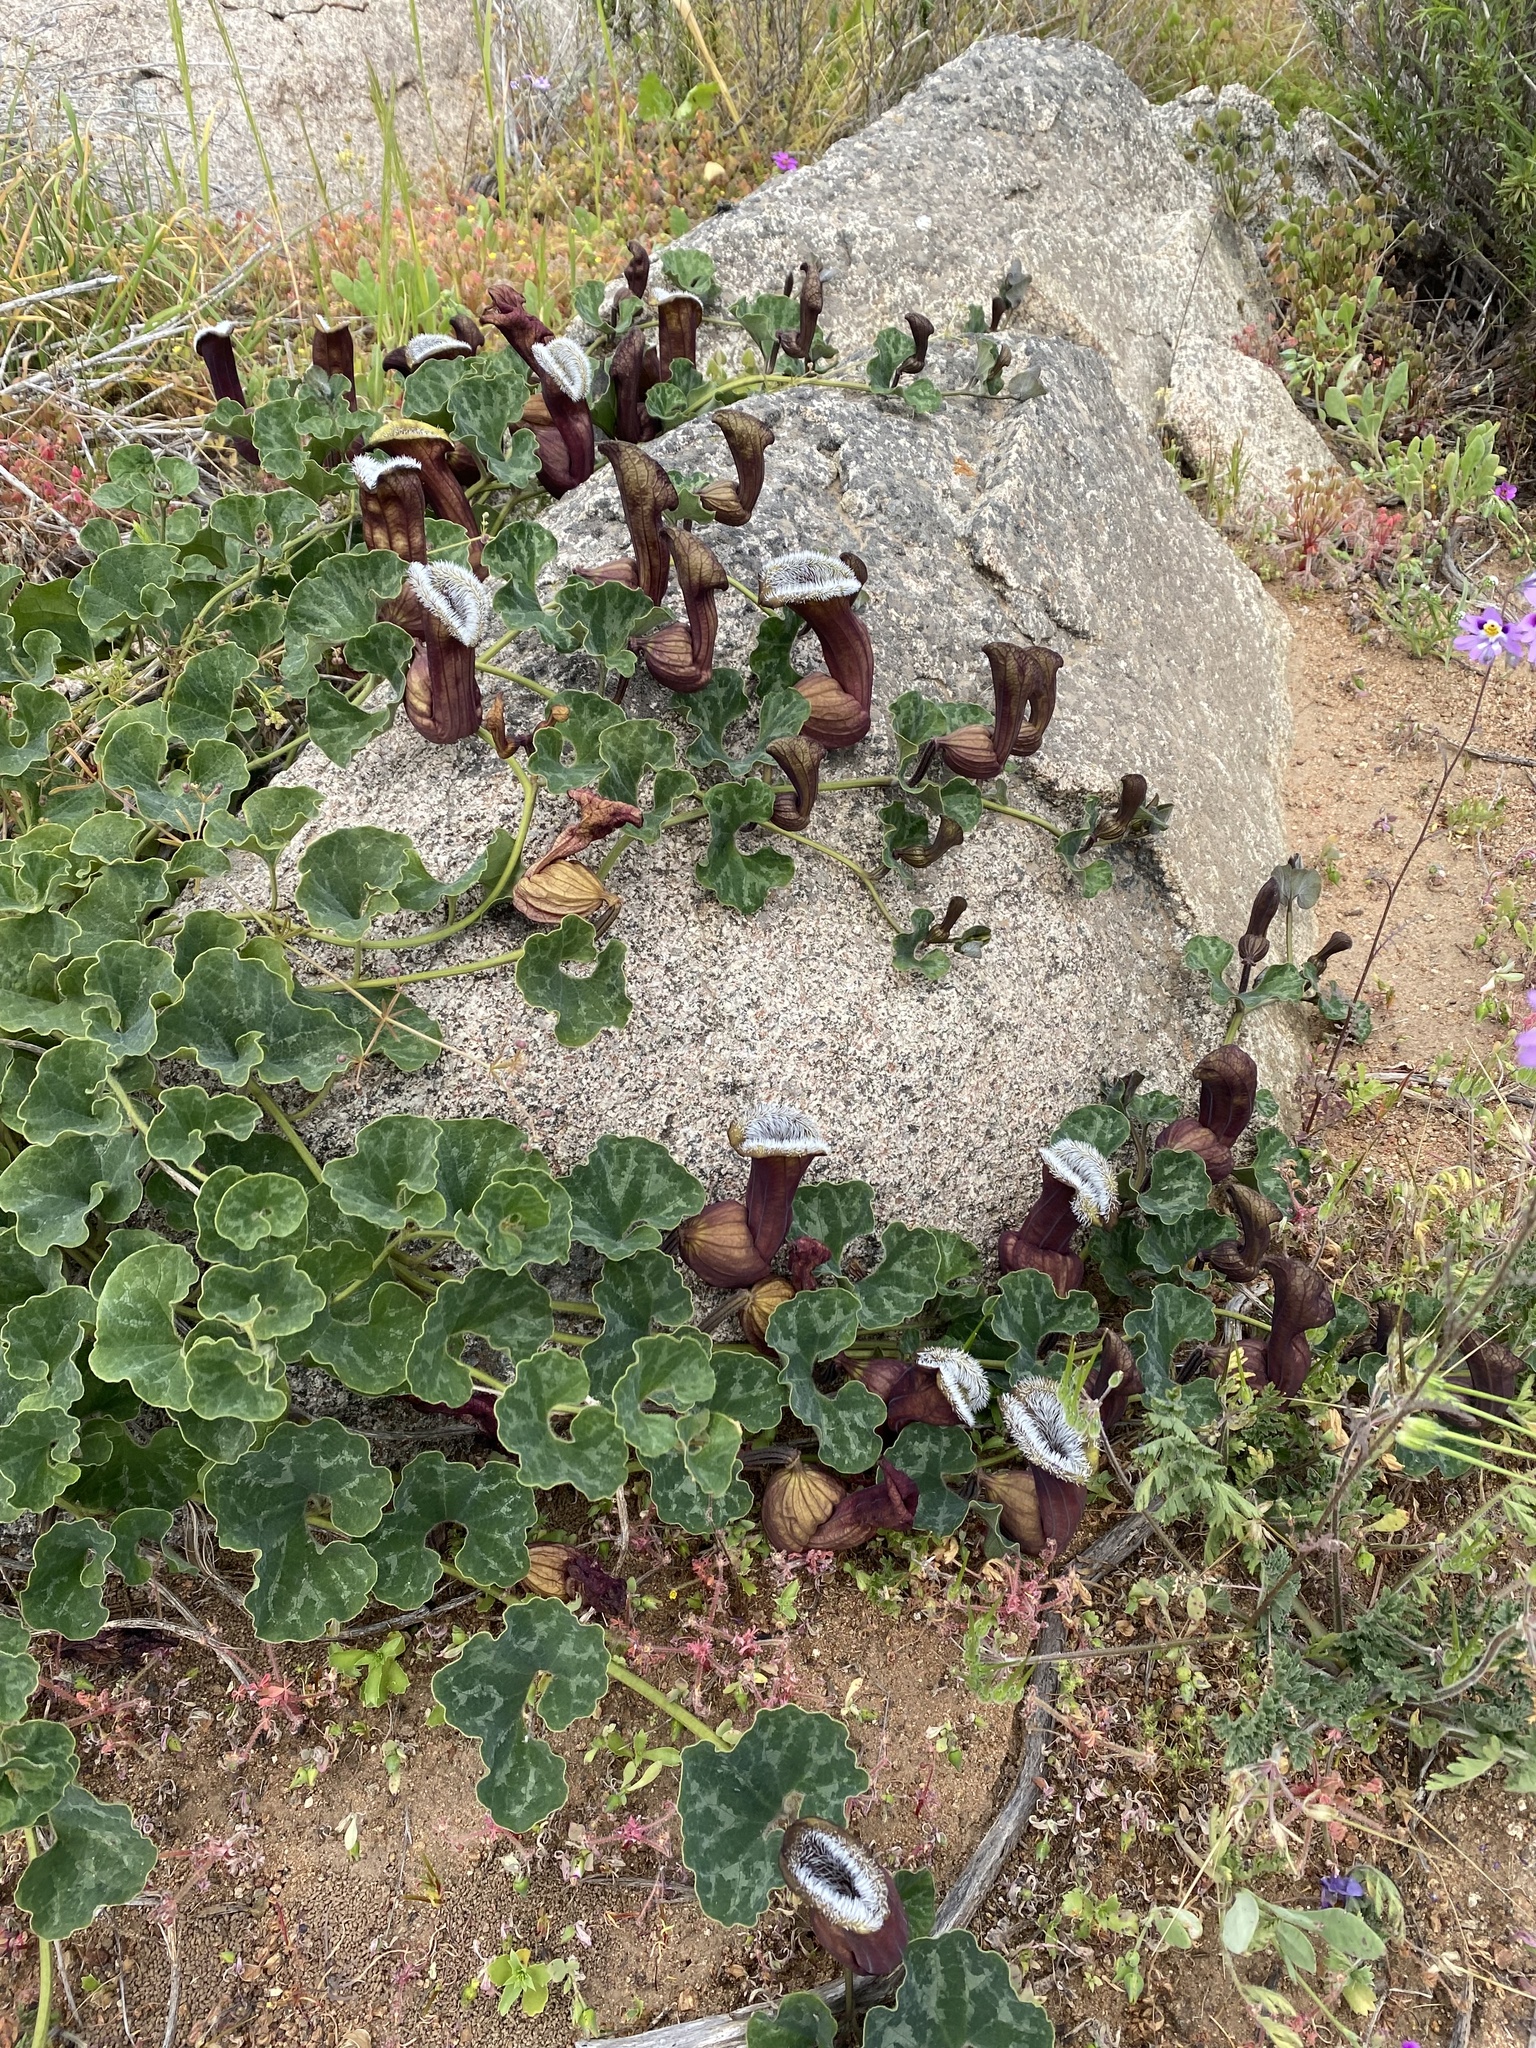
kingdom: Plantae
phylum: Tracheophyta
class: Magnoliopsida
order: Piperales
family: Aristolochiaceae
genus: Aristolochia
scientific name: Aristolochia chilensis
